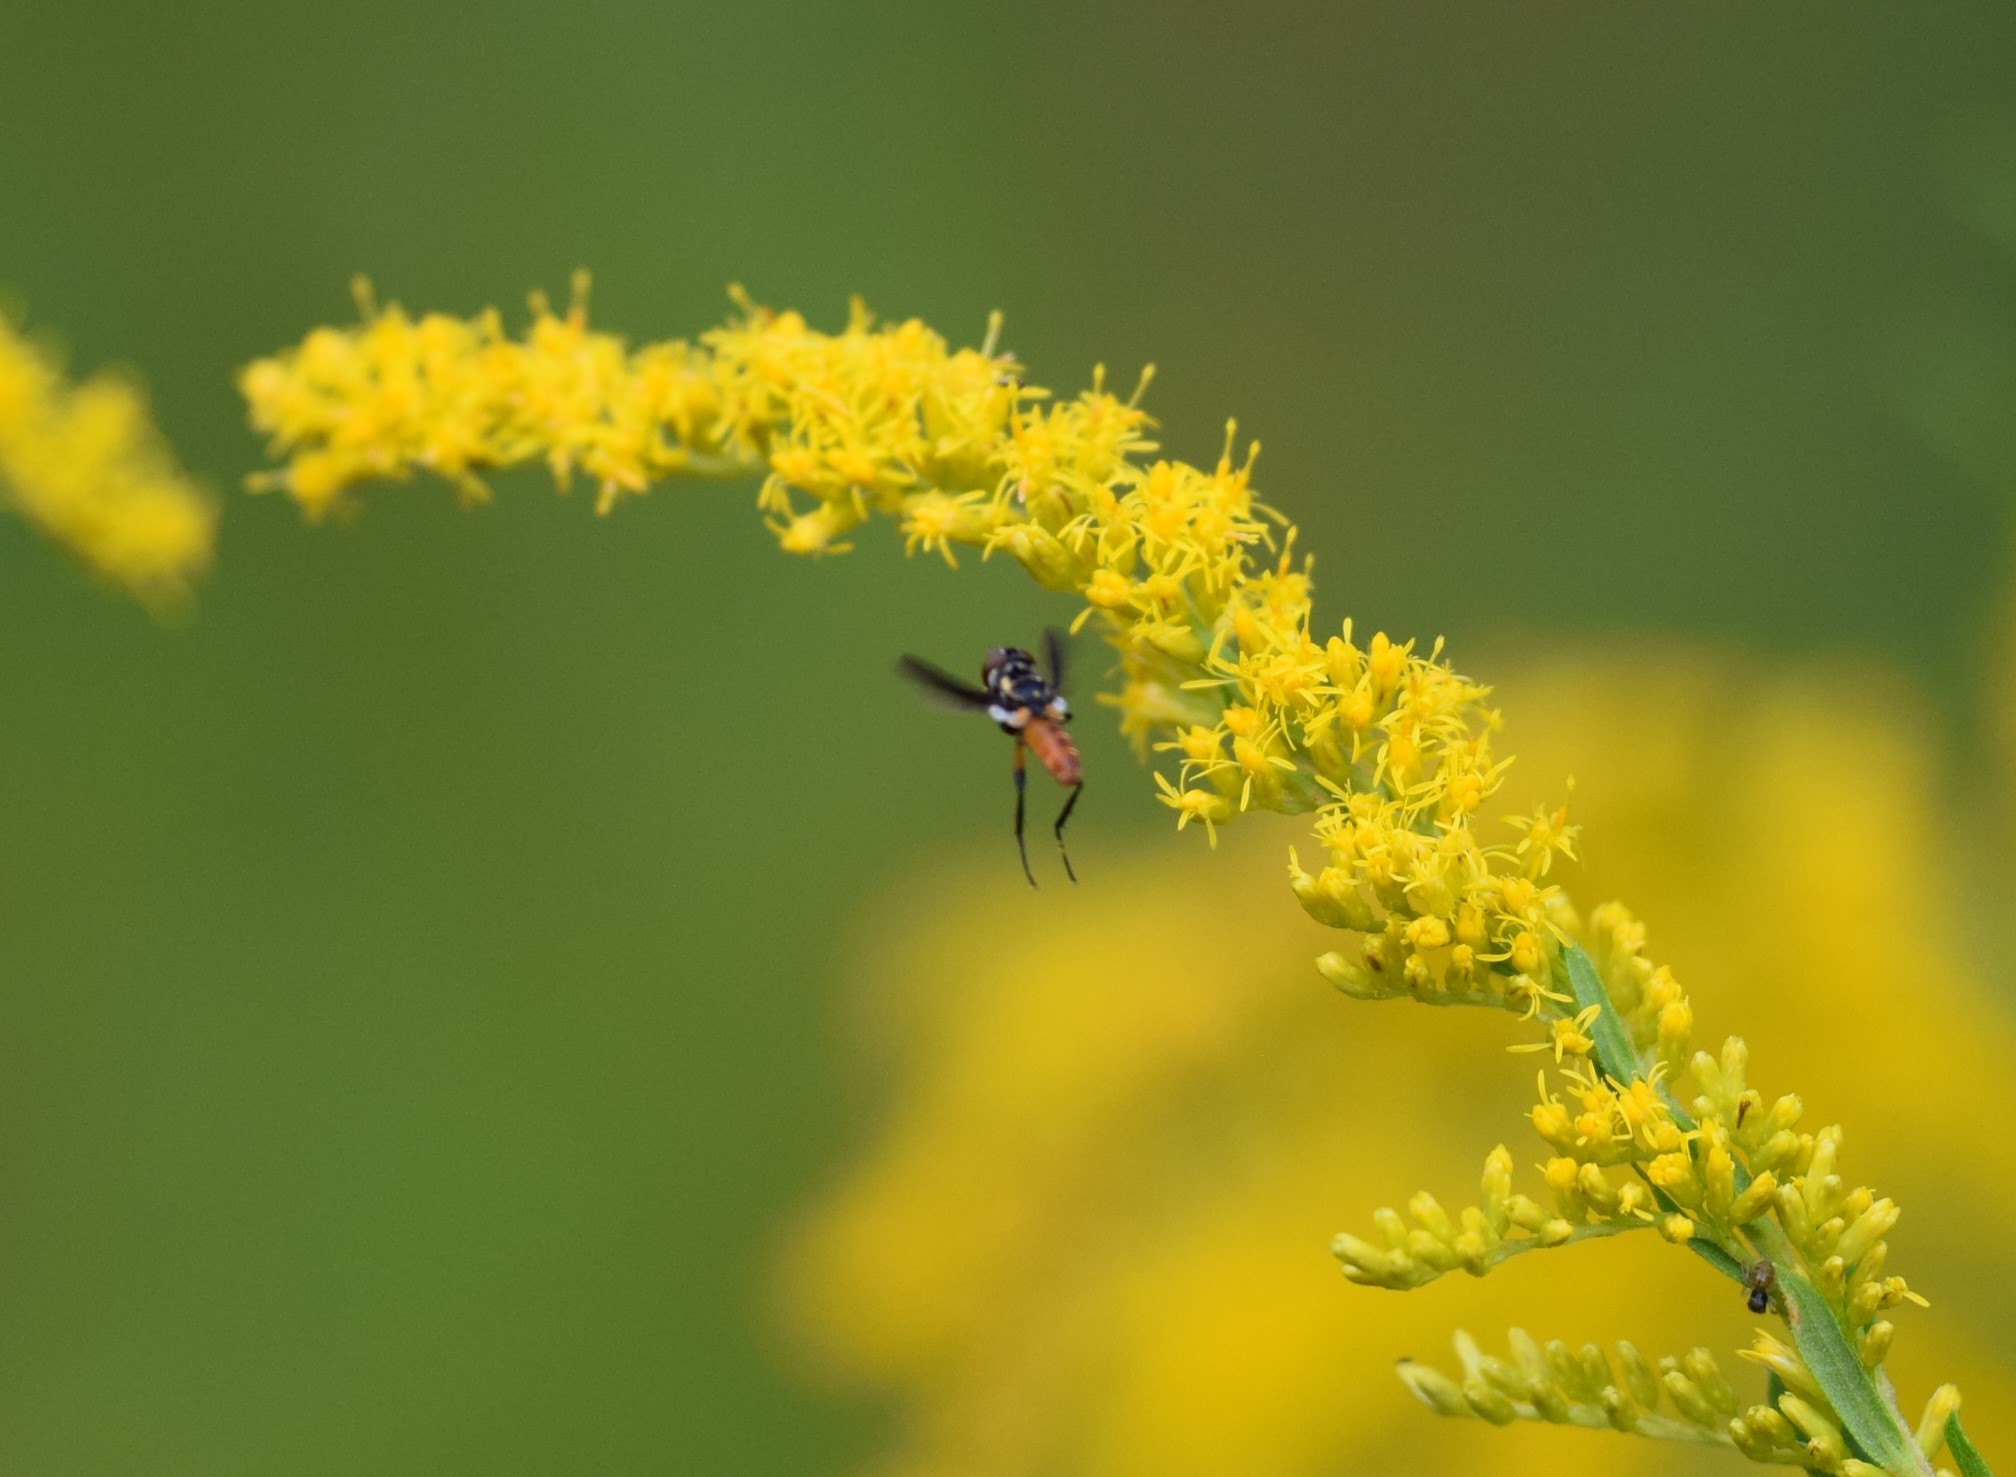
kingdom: Animalia
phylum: Arthropoda
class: Insecta
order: Diptera
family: Tachinidae
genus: Trichopoda
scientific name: Trichopoda pennipes
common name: Tachinid fly
